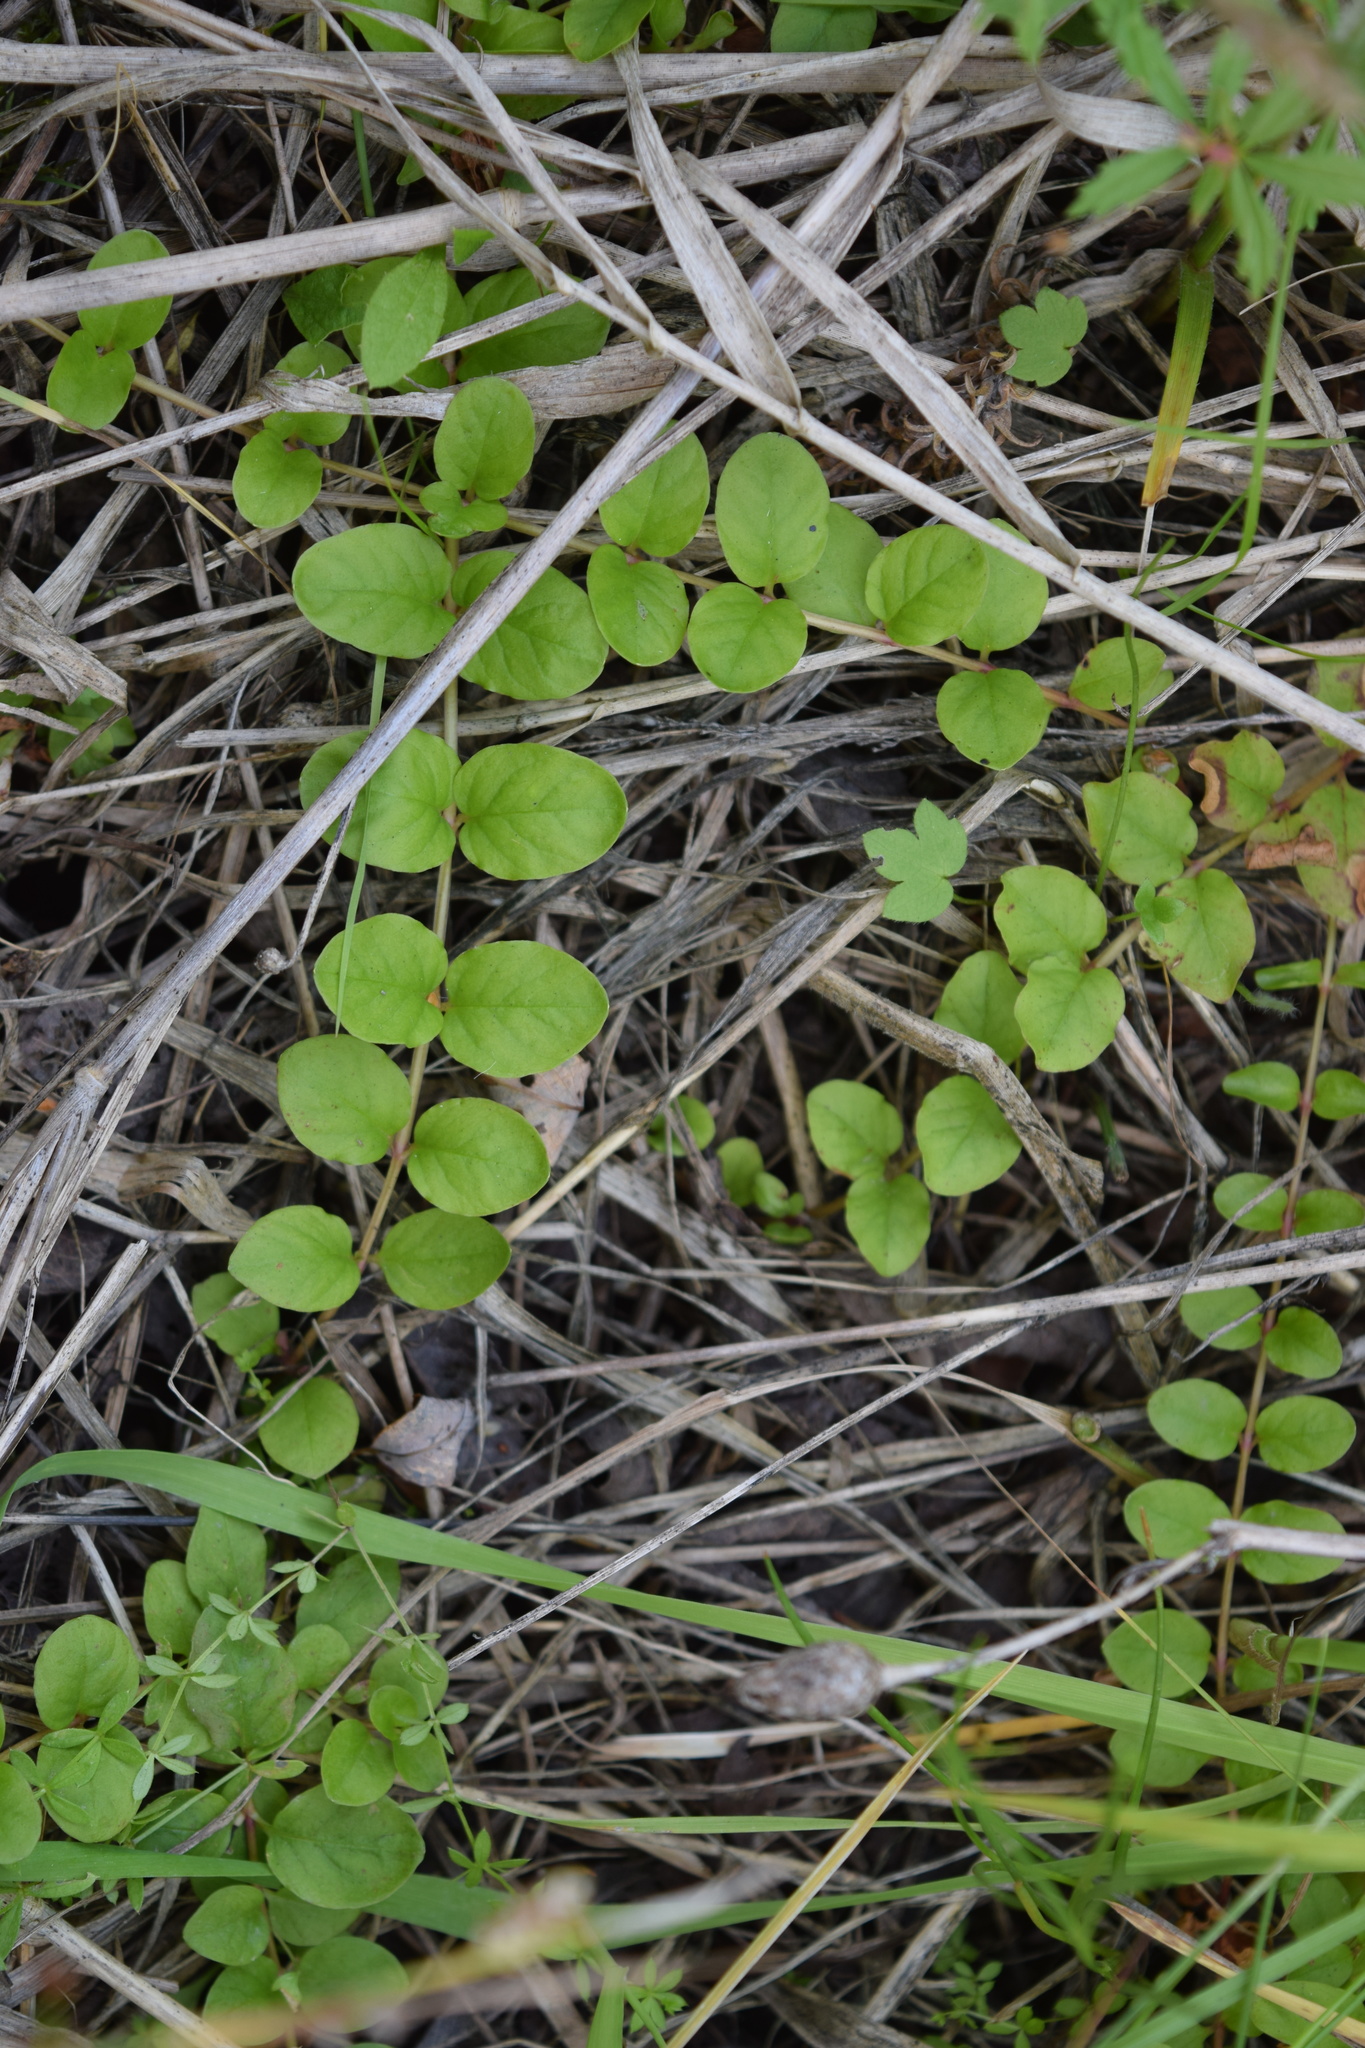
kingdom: Plantae
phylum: Tracheophyta
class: Magnoliopsida
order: Ericales
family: Primulaceae
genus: Lysimachia
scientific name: Lysimachia nummularia
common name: Moneywort
